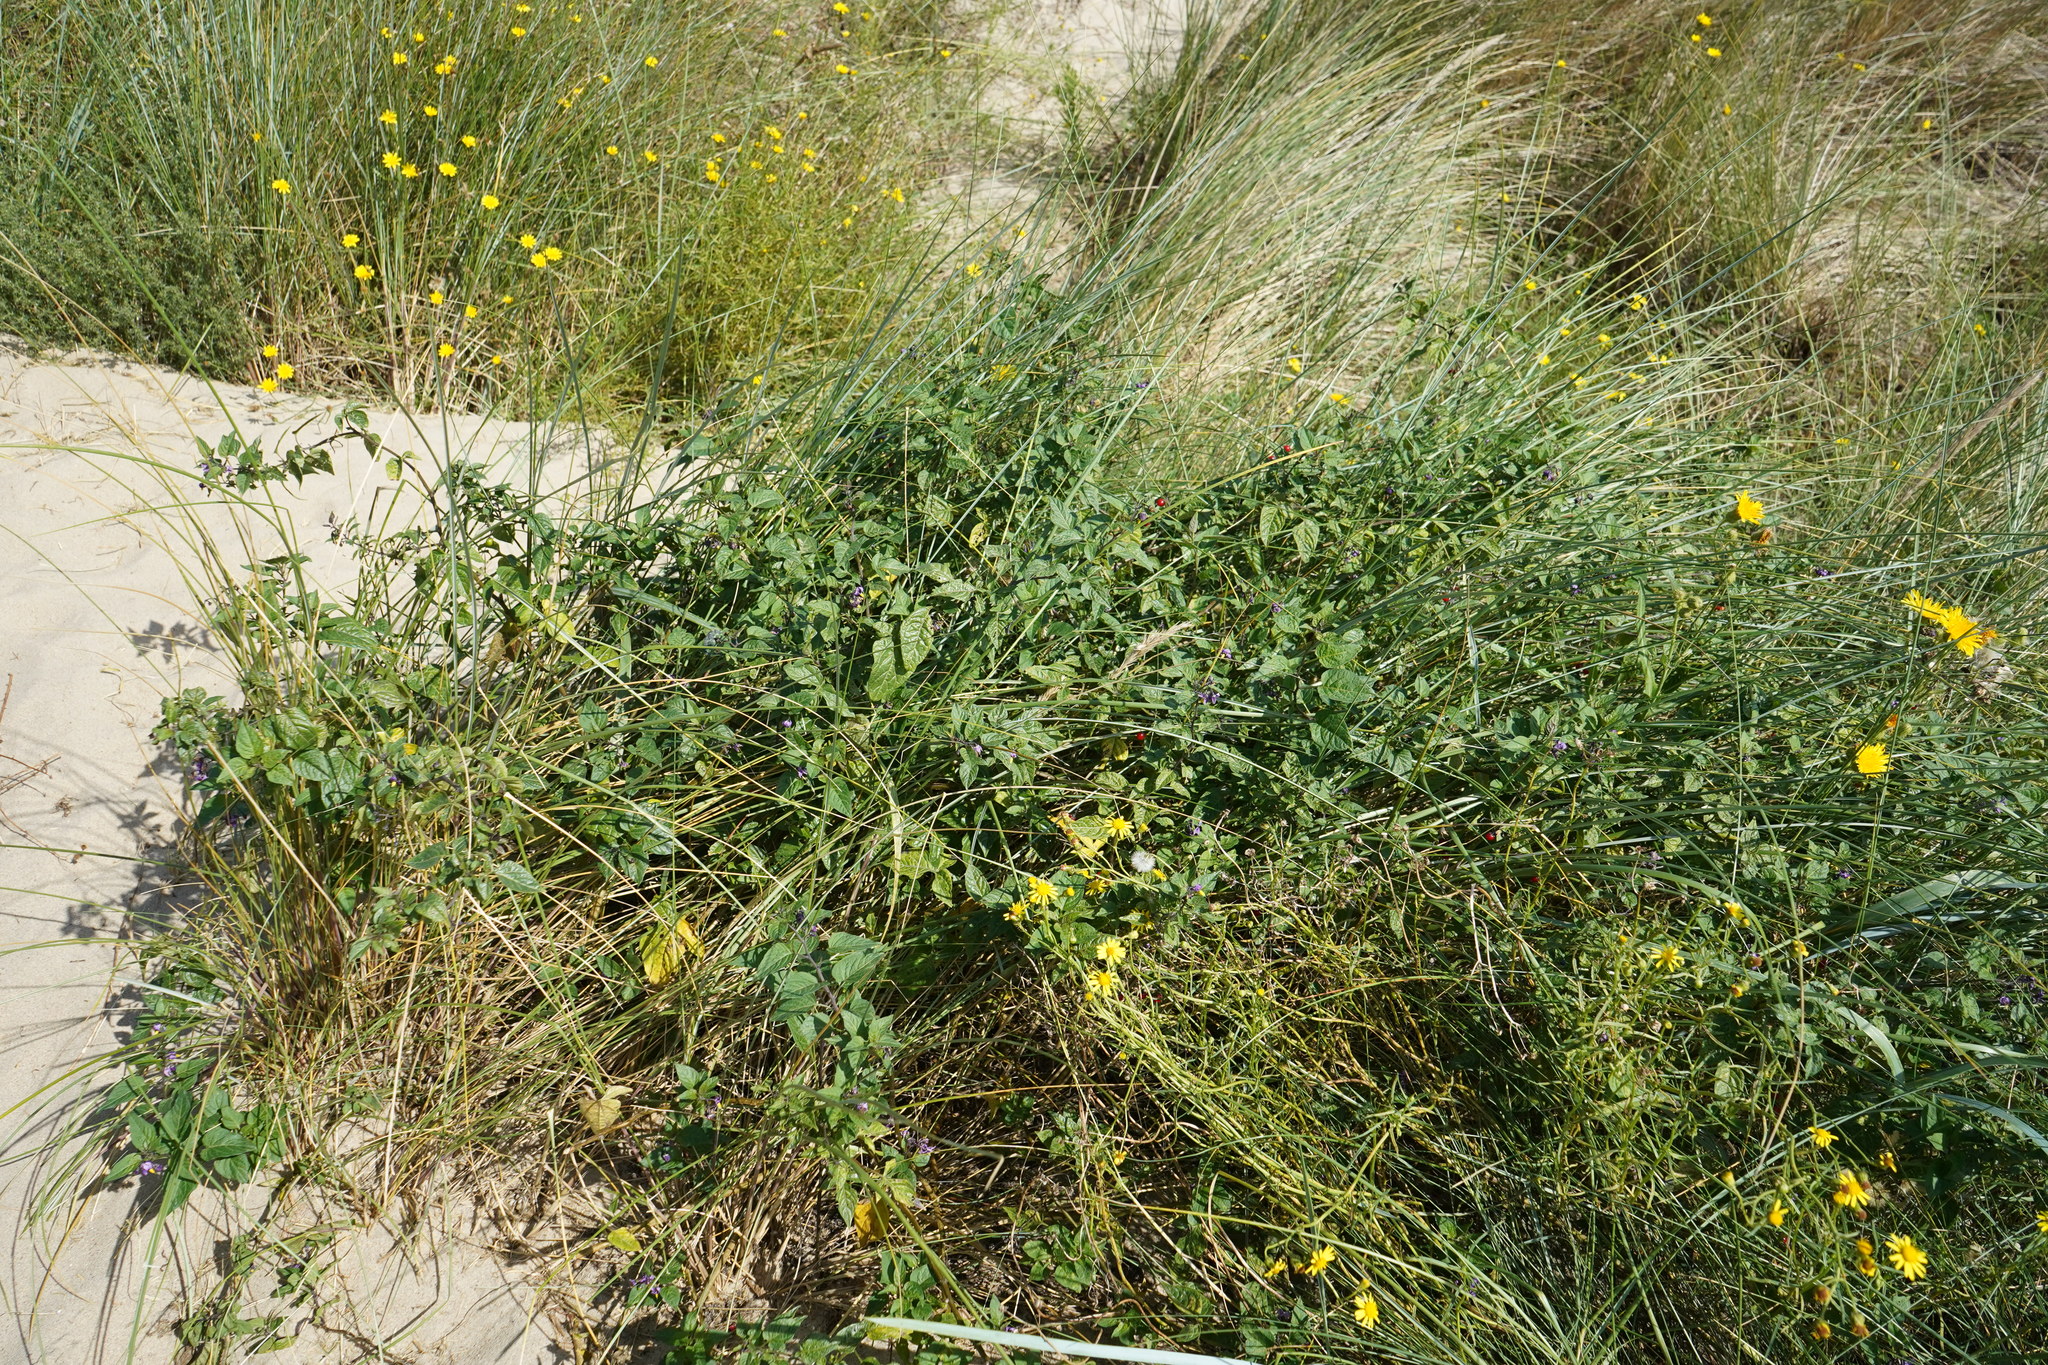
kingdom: Plantae
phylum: Tracheophyta
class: Magnoliopsida
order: Solanales
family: Solanaceae
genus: Solanum
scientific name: Solanum dulcamara
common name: Climbing nightshade
